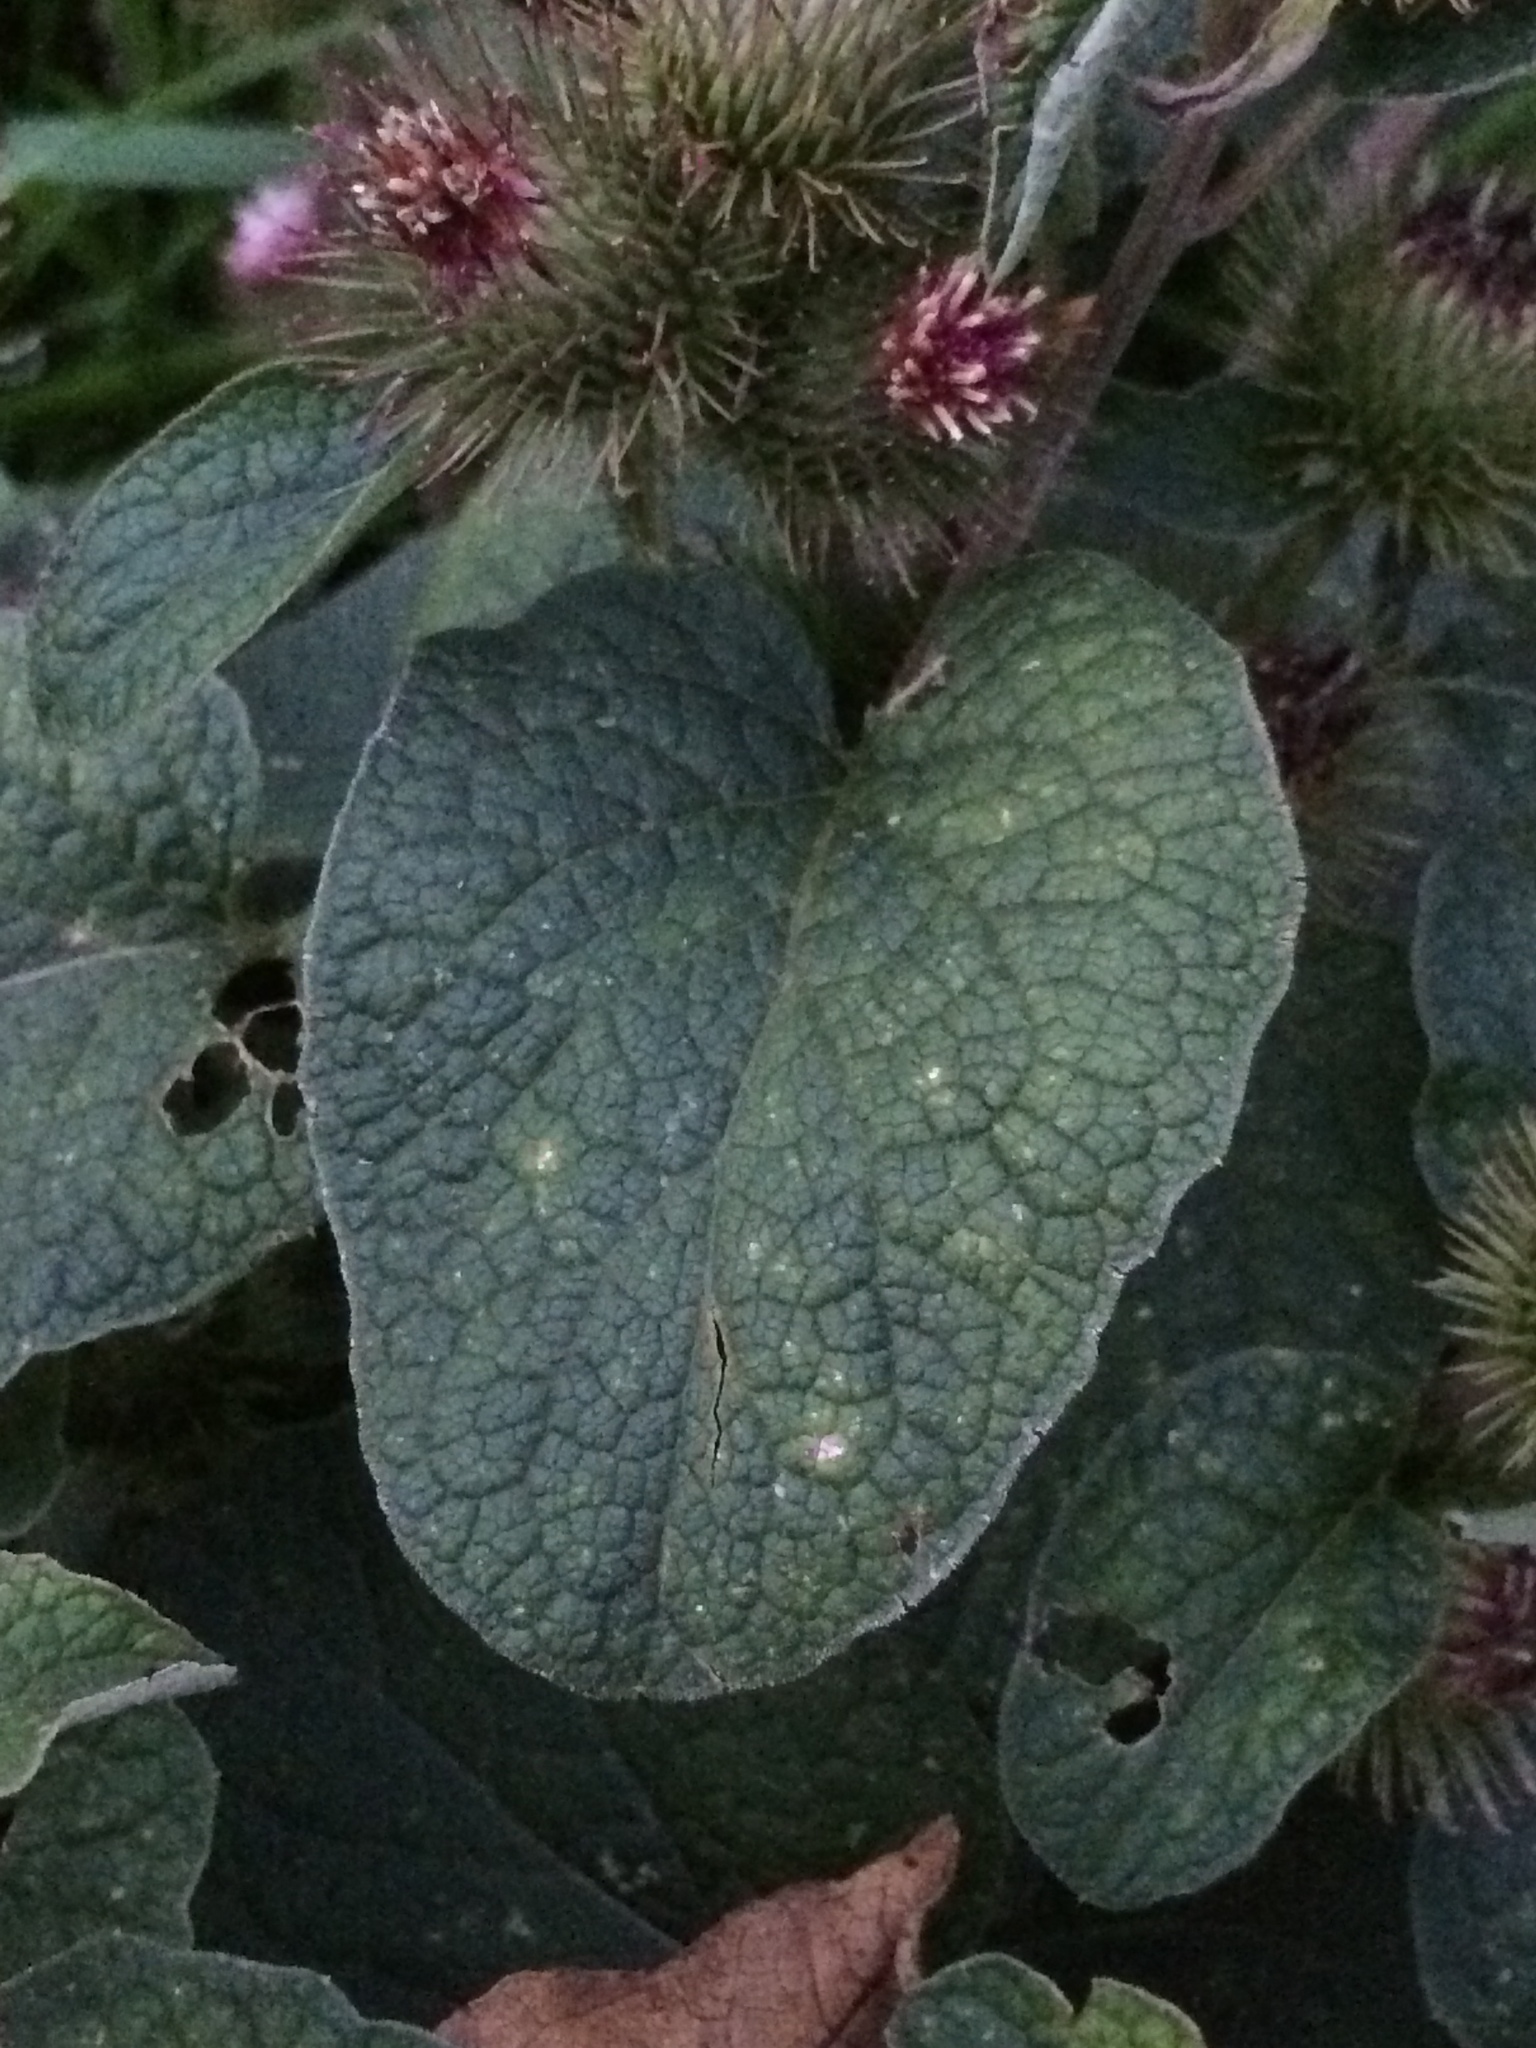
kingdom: Plantae
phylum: Tracheophyta
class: Magnoliopsida
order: Asterales
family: Asteraceae
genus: Arctium
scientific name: Arctium minus
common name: Lesser burdock
